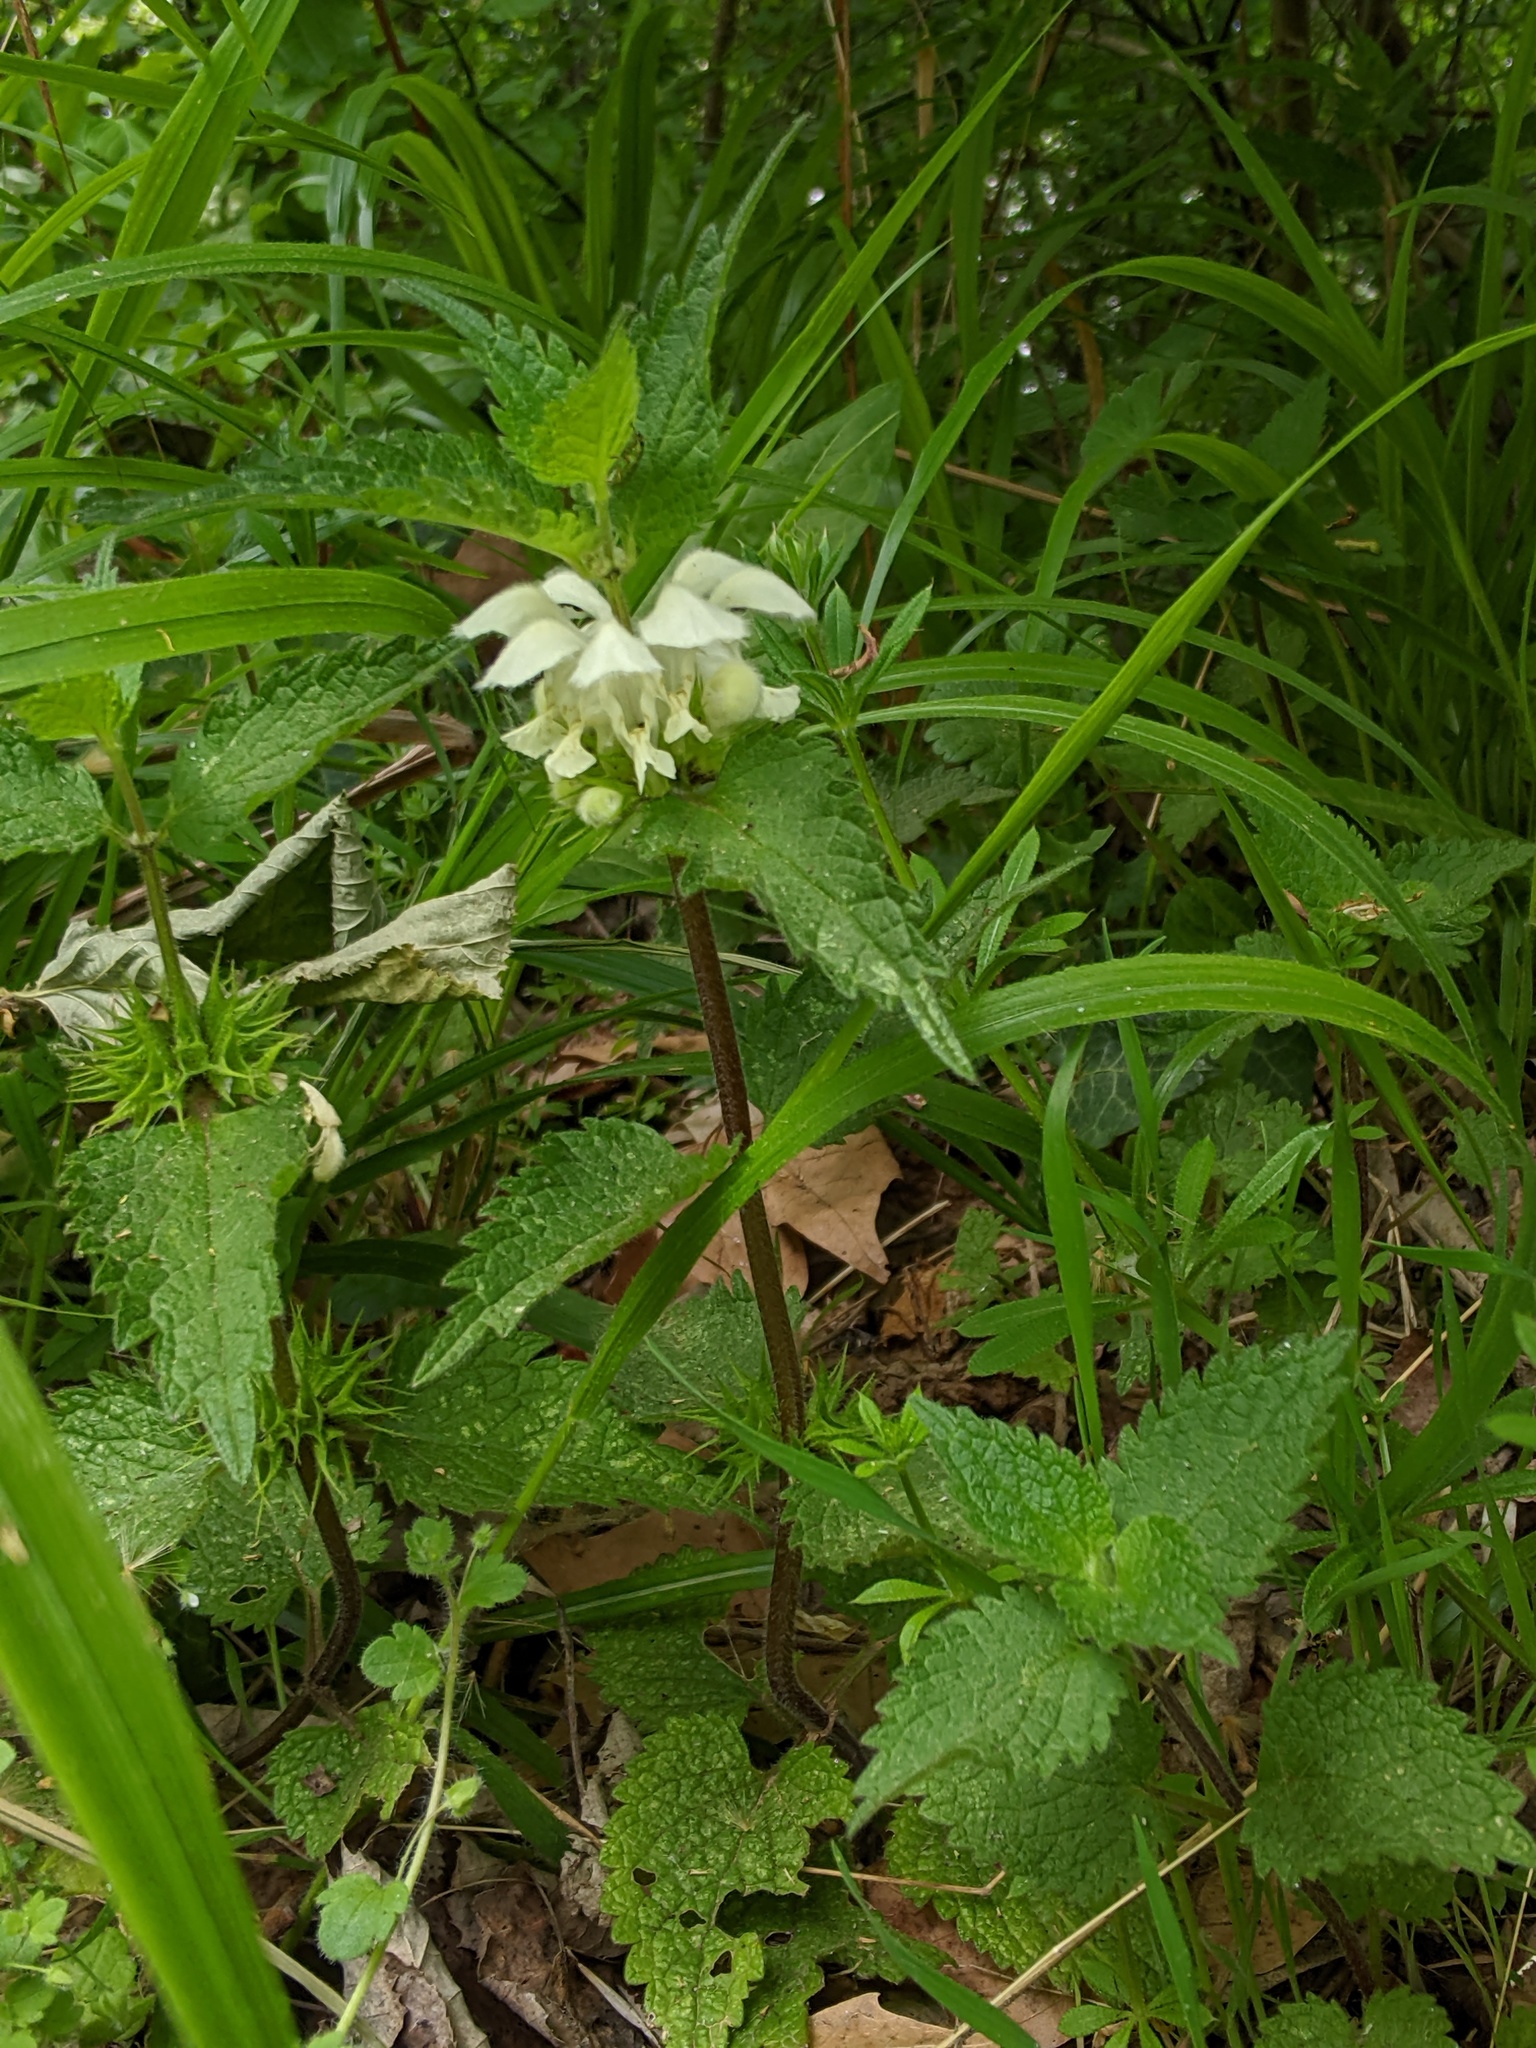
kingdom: Plantae
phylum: Tracheophyta
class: Magnoliopsida
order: Lamiales
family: Lamiaceae
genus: Lamium
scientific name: Lamium album
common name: White dead-nettle
